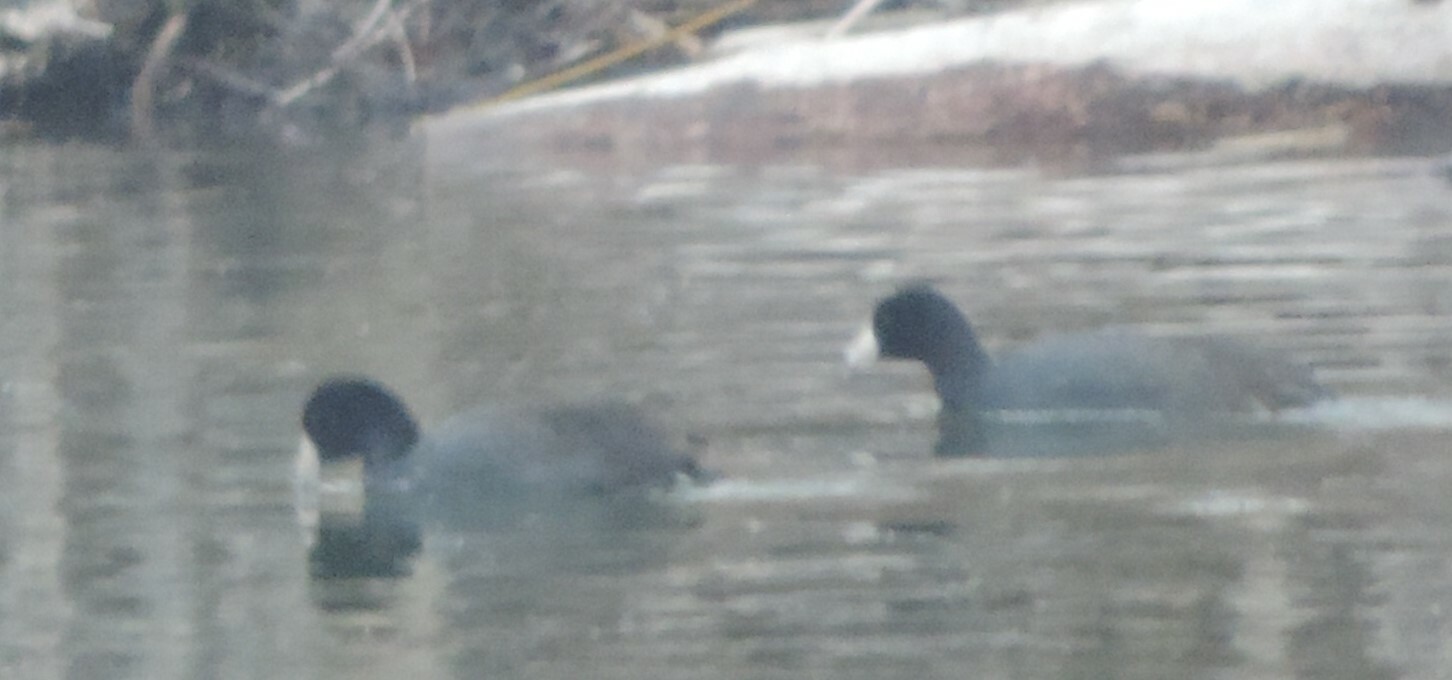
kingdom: Animalia
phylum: Chordata
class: Aves
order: Gruiformes
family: Rallidae
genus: Fulica
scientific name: Fulica americana
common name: American coot
